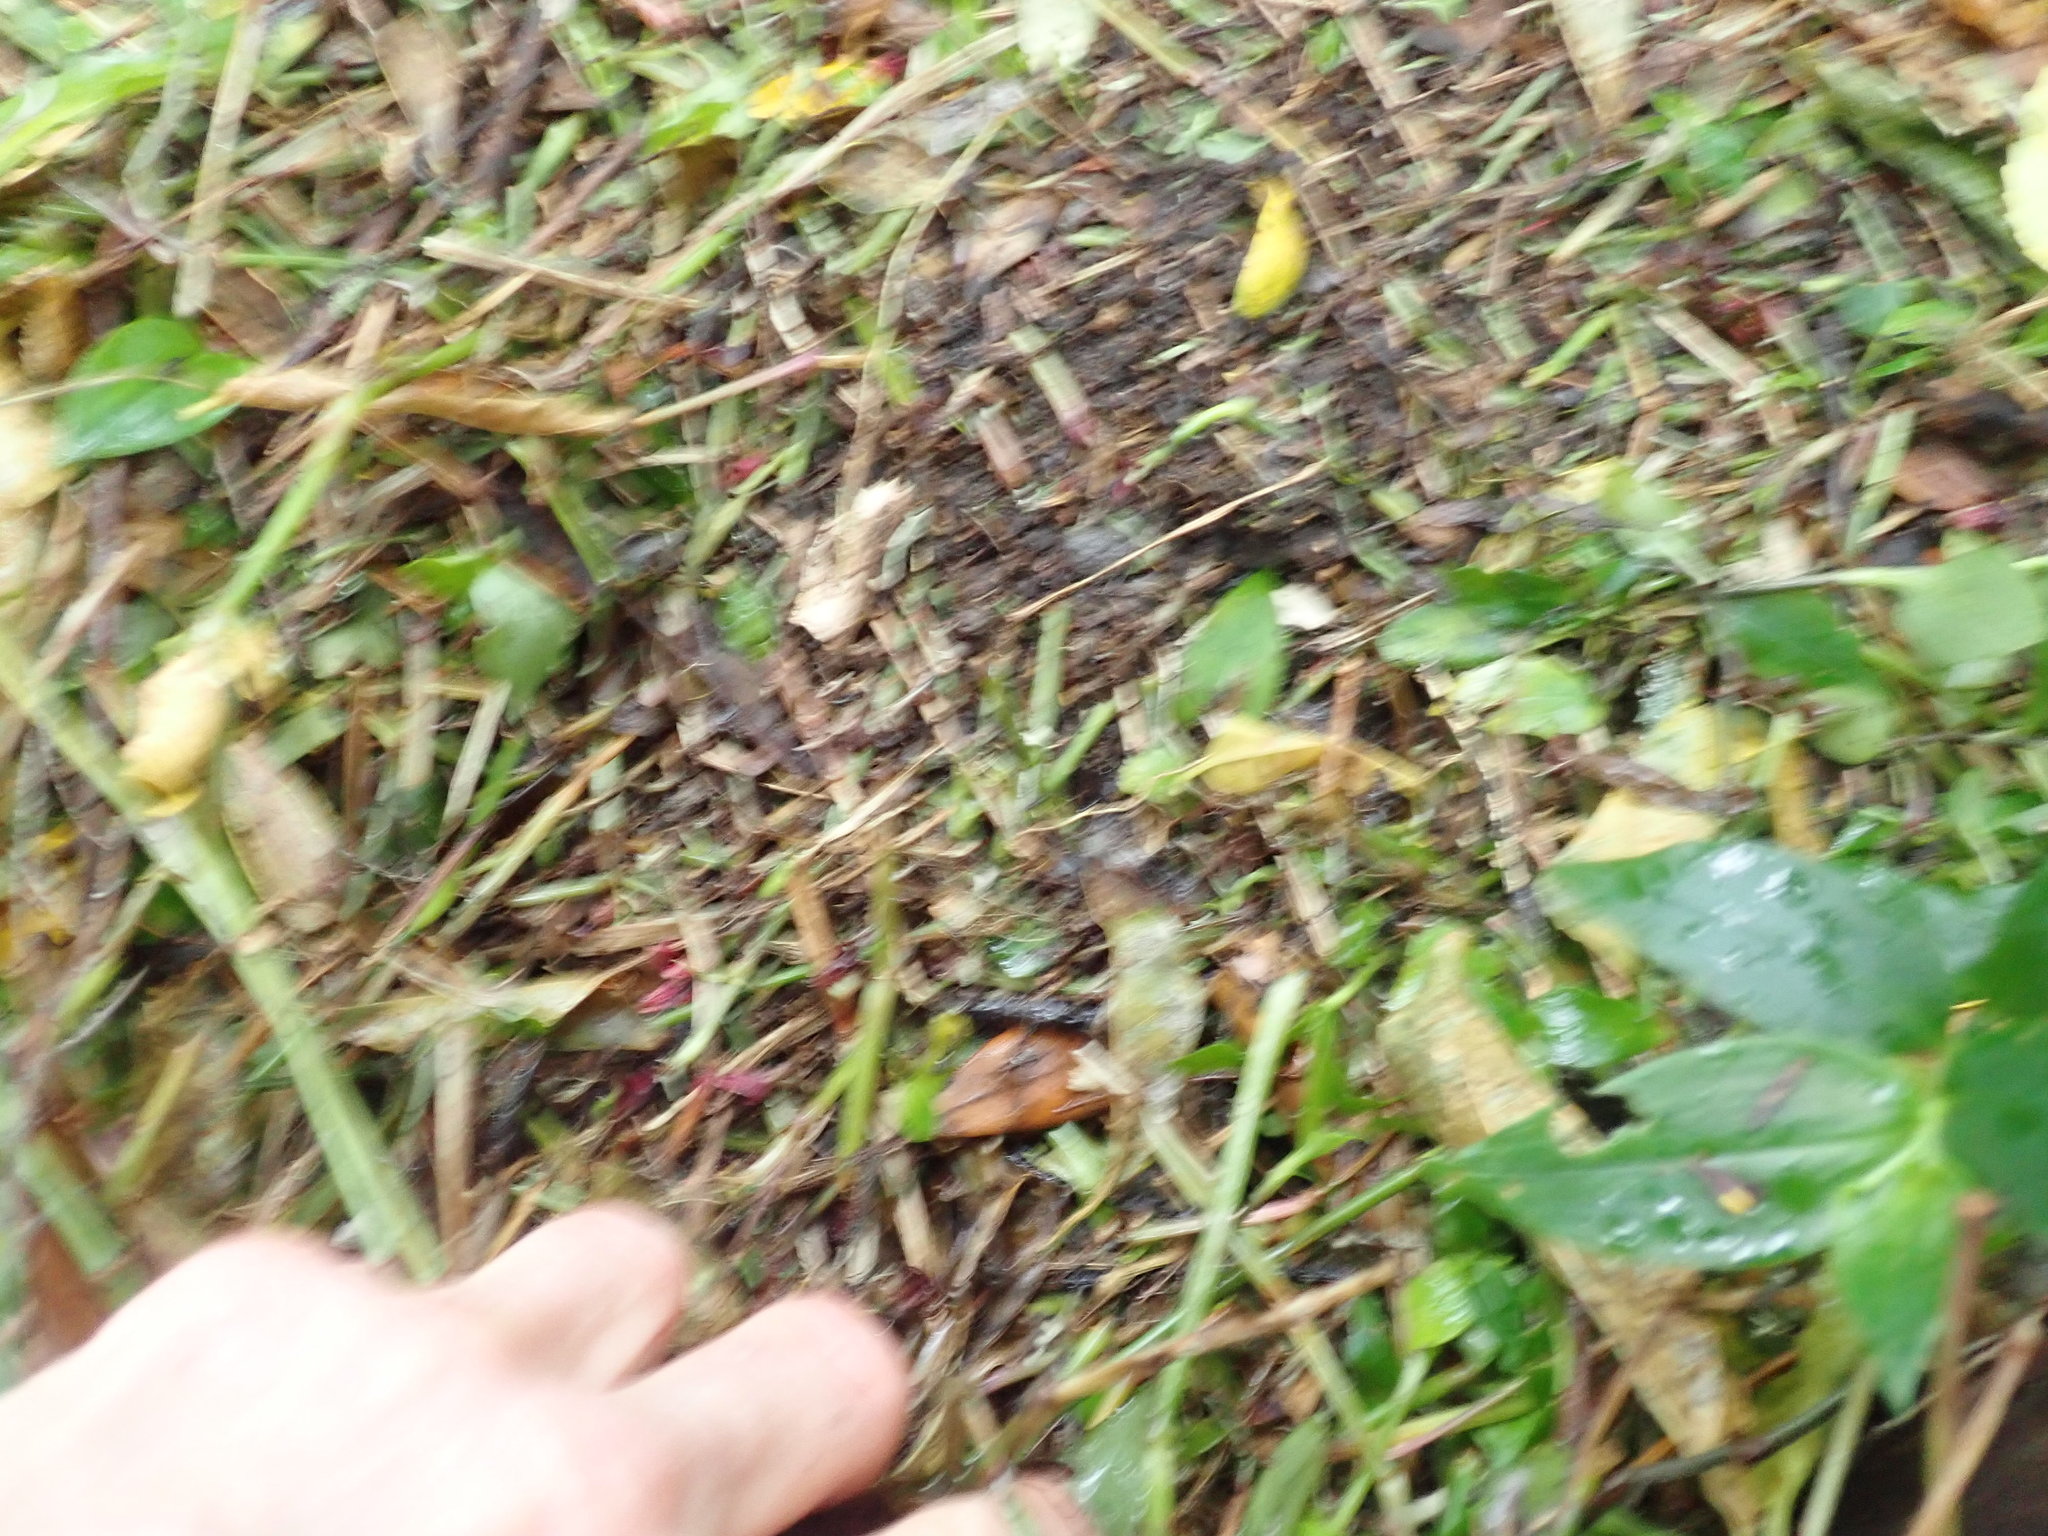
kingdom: Plantae
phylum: Tracheophyta
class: Liliopsida
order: Commelinales
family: Commelinaceae
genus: Tradescantia
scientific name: Tradescantia fluminensis
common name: Wandering-jew
